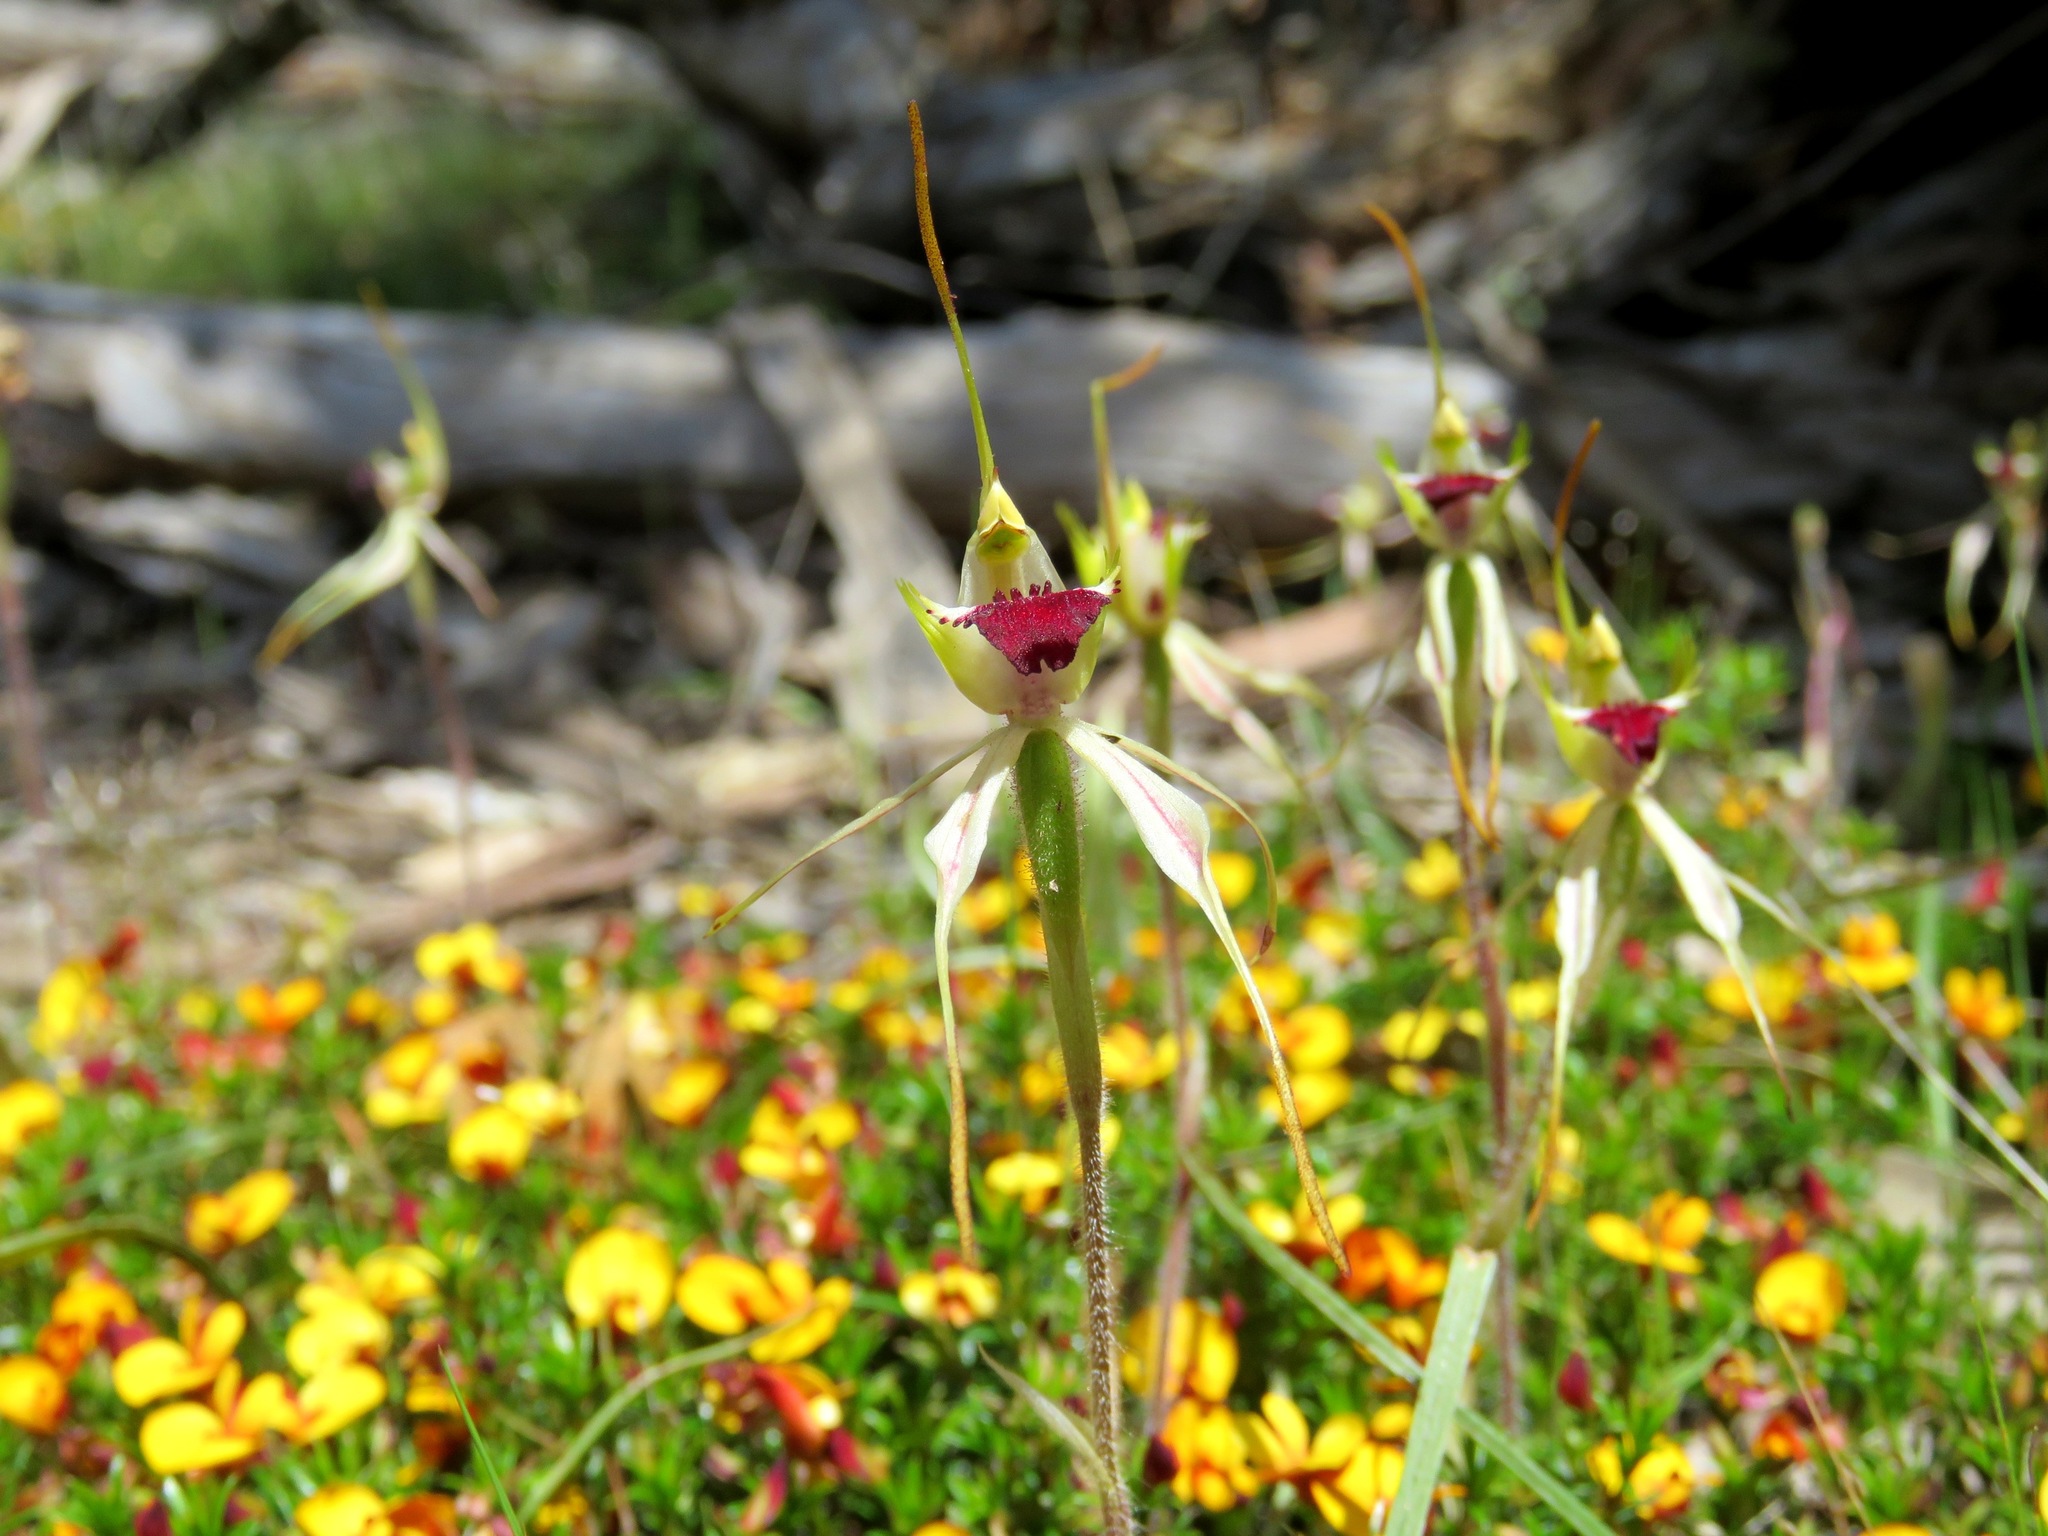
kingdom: Plantae
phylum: Tracheophyta
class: Liliopsida
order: Asparagales
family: Orchidaceae
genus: Caladenia
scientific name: Caladenia parva
